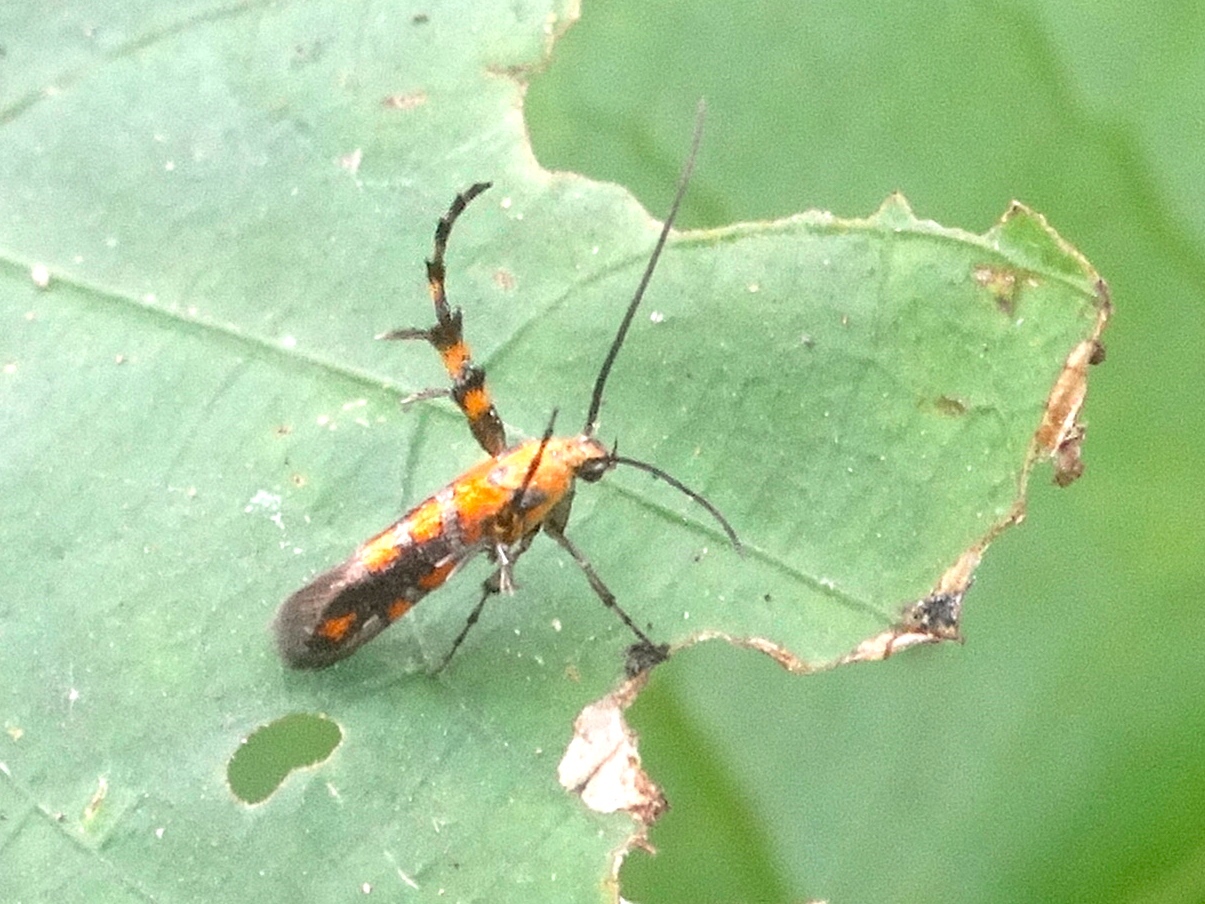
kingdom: Animalia
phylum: Arthropoda
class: Insecta
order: Lepidoptera
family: Heliodinidae
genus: Heliodines
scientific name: Heliodines
